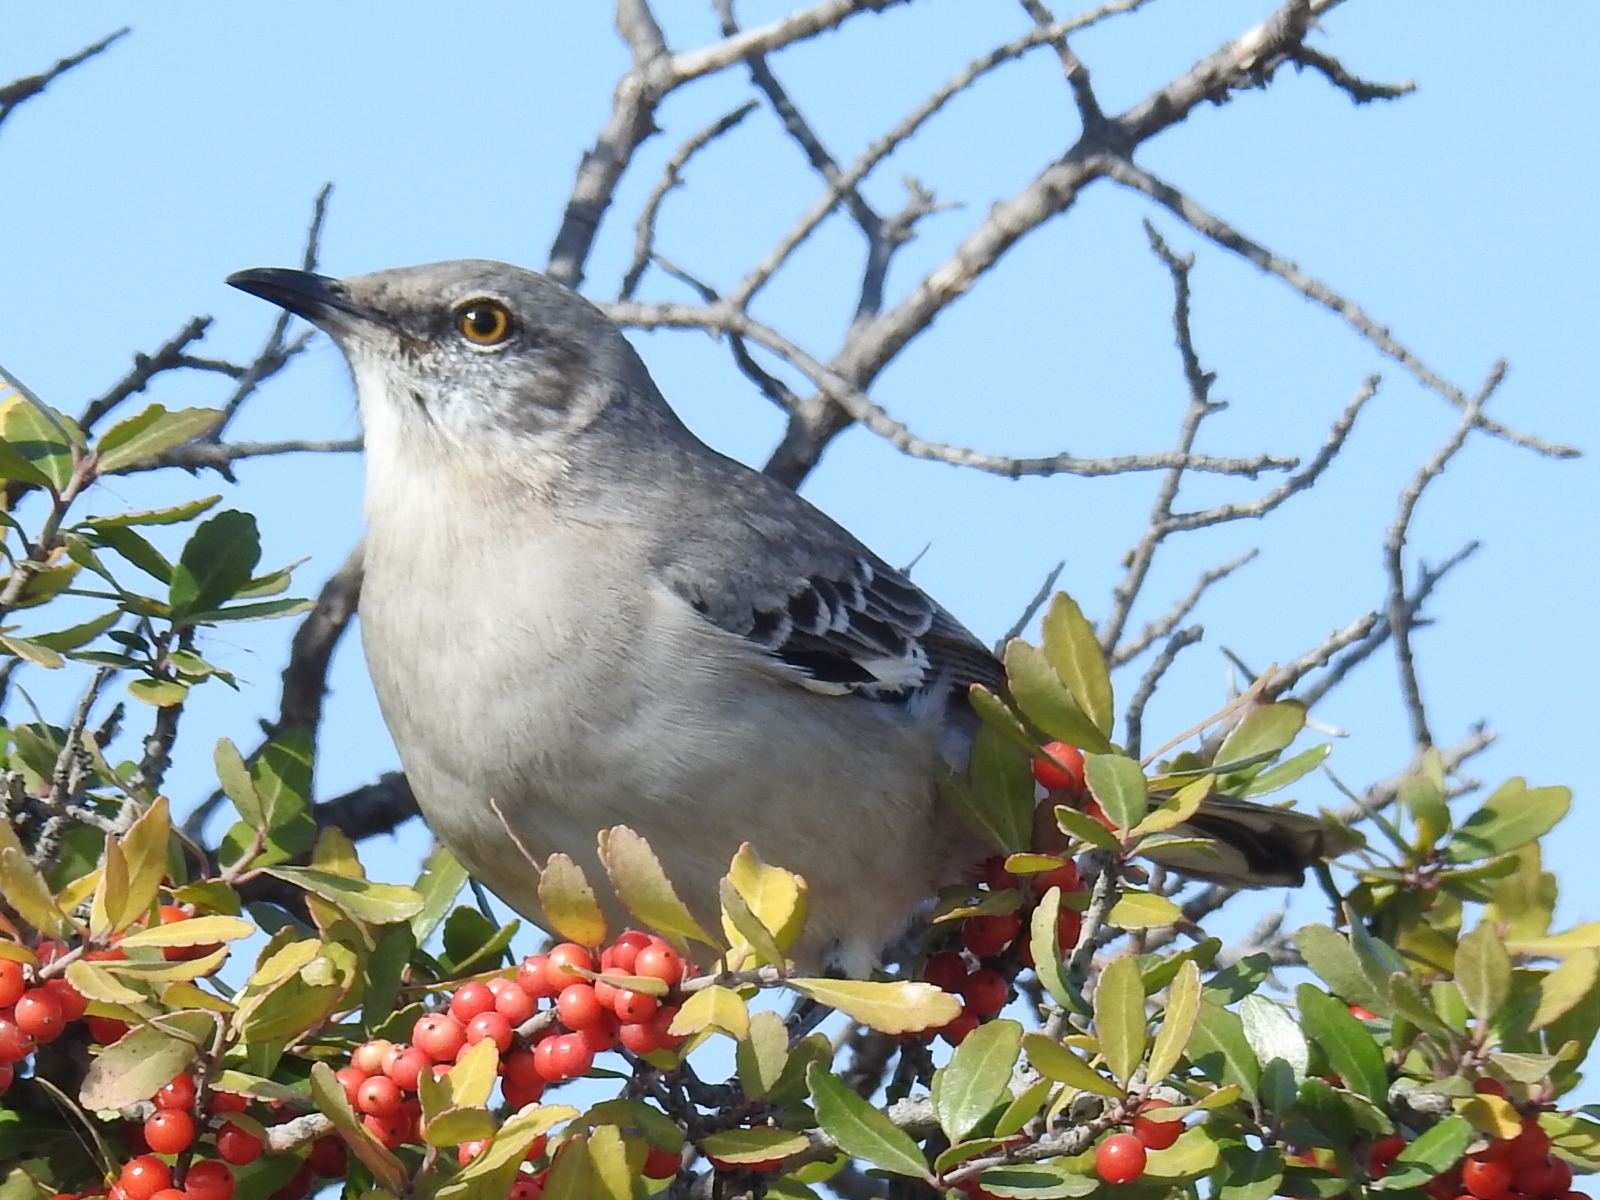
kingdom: Animalia
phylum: Chordata
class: Aves
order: Passeriformes
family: Mimidae
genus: Mimus
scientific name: Mimus polyglottos
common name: Northern mockingbird
